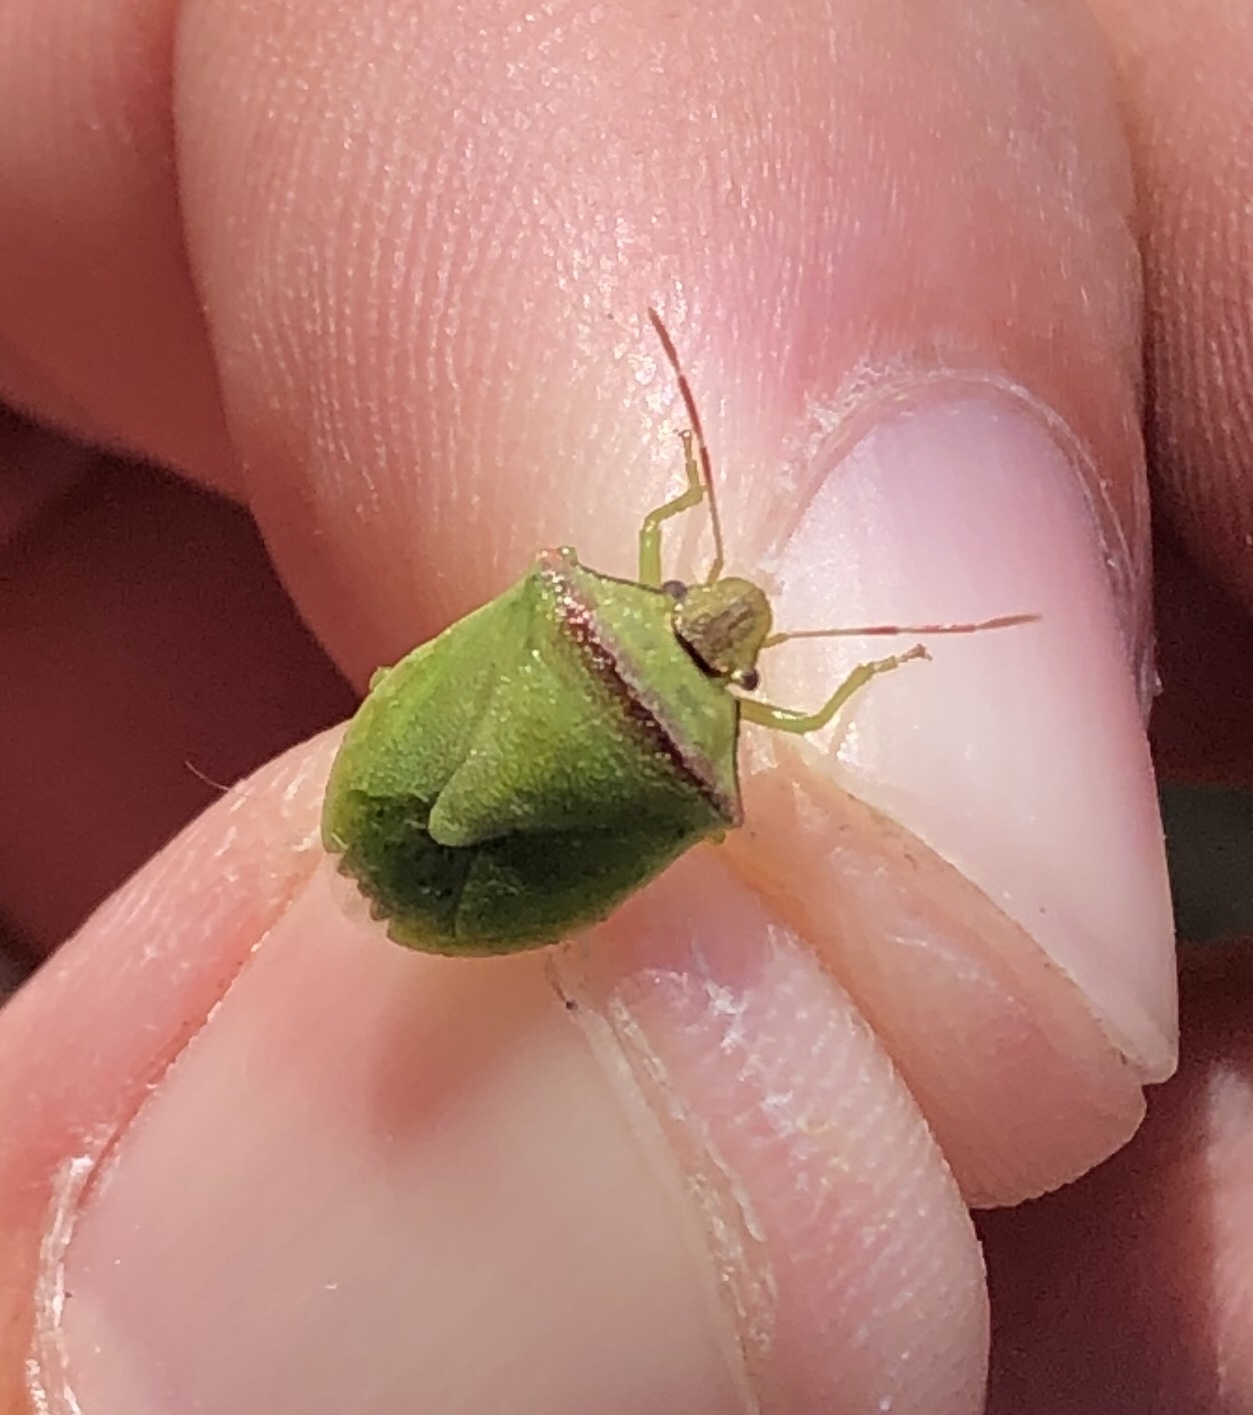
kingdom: Animalia
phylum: Arthropoda
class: Insecta
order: Hemiptera
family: Pentatomidae
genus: Thyanta
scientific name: Thyanta calceata
